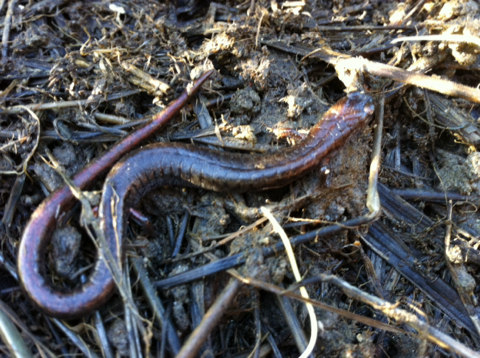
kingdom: Animalia
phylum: Chordata
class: Amphibia
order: Caudata
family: Plethodontidae
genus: Batrachoseps
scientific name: Batrachoseps attenuatus
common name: California slender salamander
